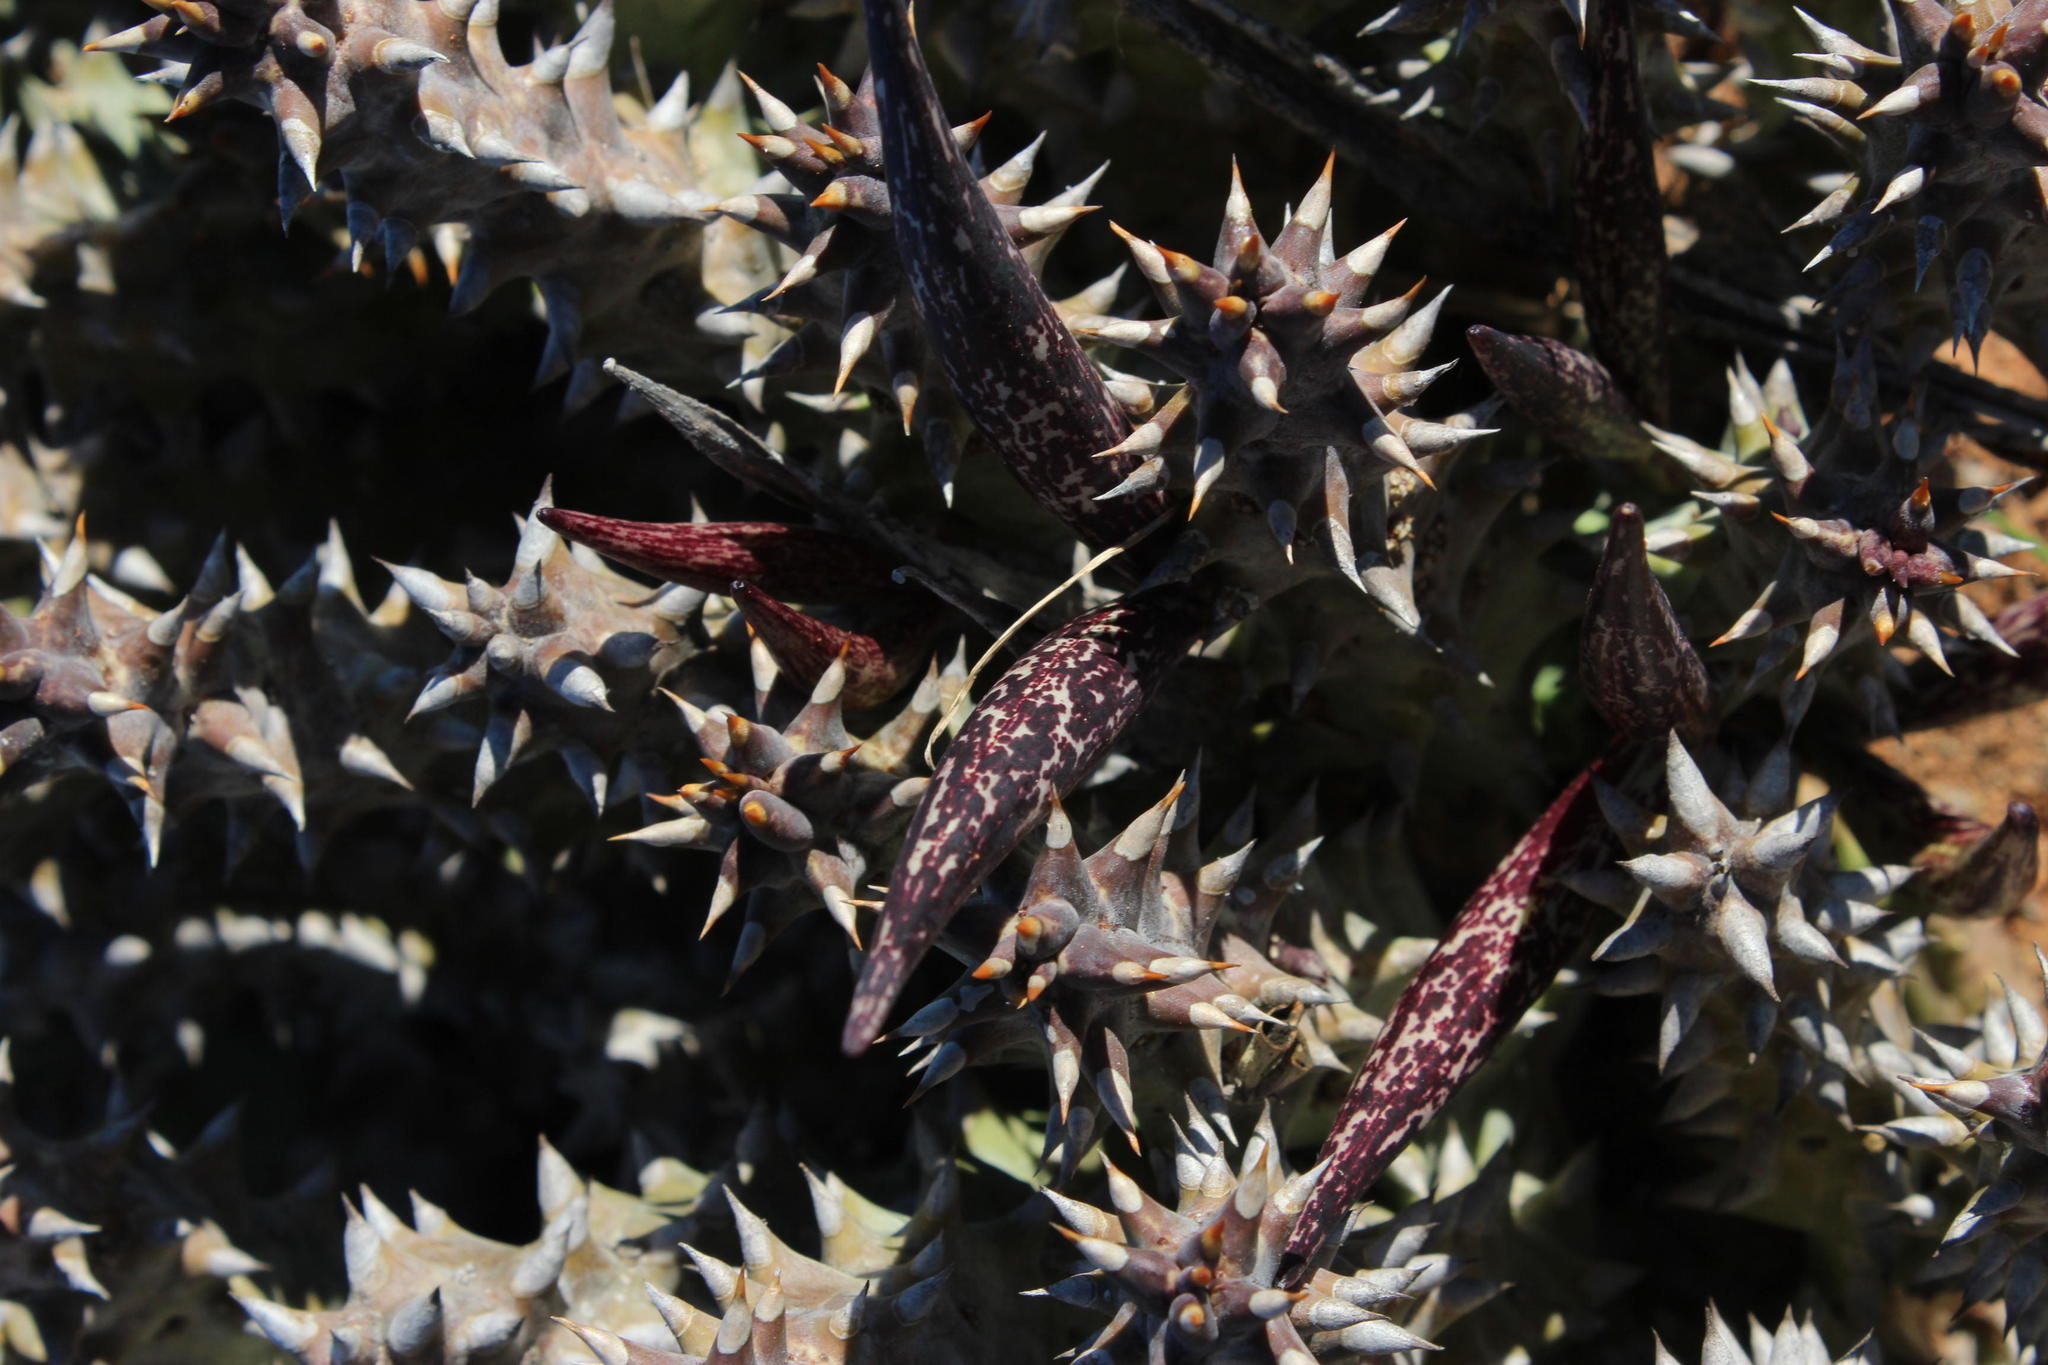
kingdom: Plantae
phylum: Tracheophyta
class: Magnoliopsida
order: Gentianales
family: Apocynaceae
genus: Ceropegia
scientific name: Ceropegia mammillaris
